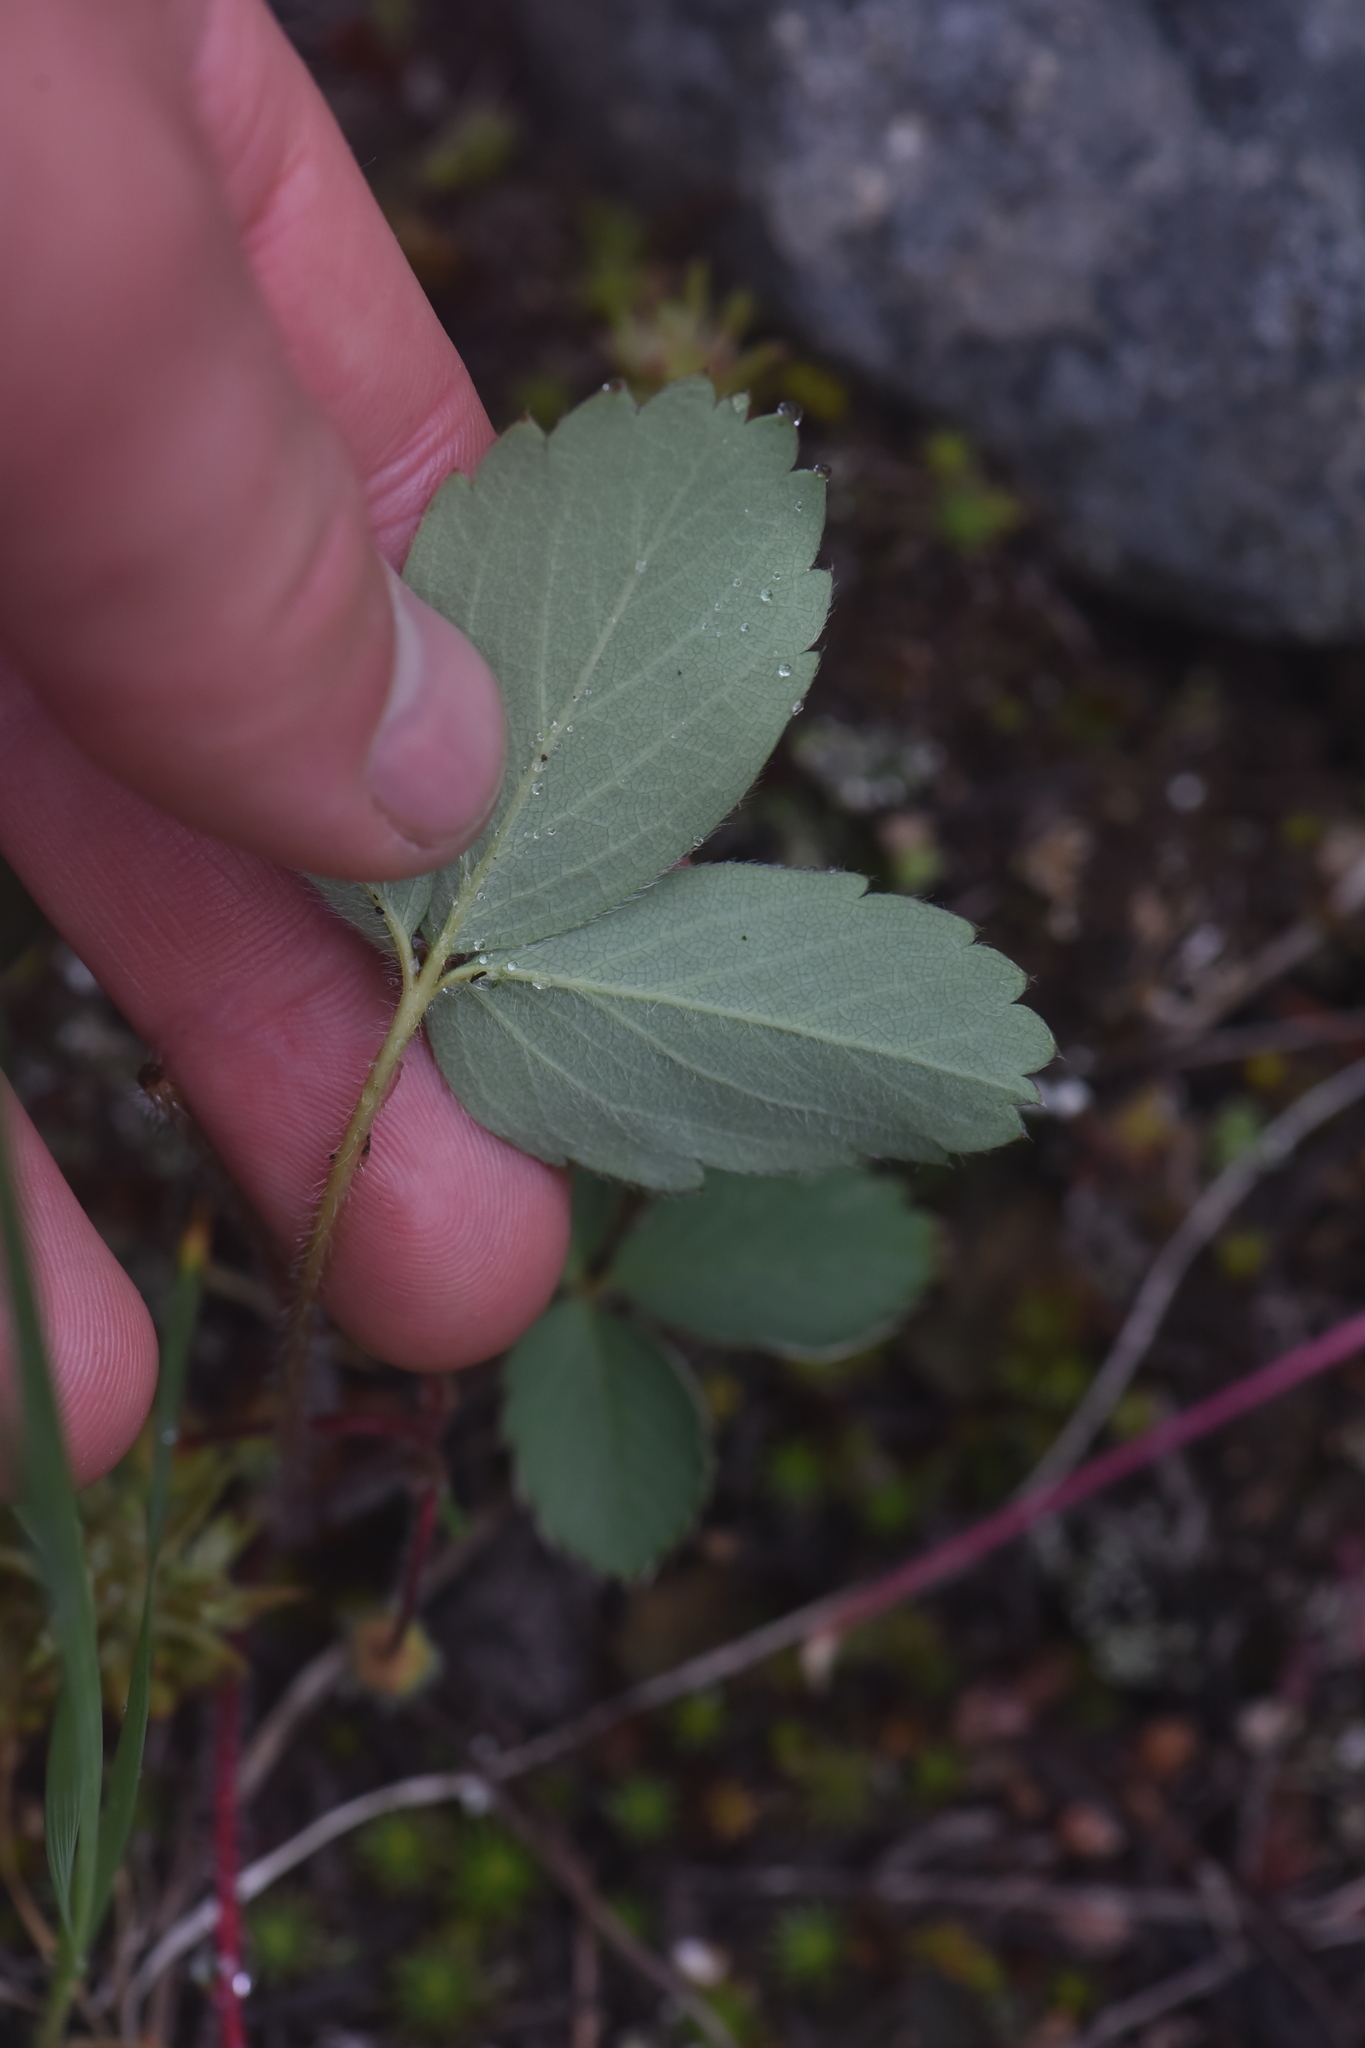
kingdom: Plantae
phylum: Tracheophyta
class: Magnoliopsida
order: Rosales
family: Rosaceae
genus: Fragaria
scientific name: Fragaria virginiana
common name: Thickleaved wild strawberry
